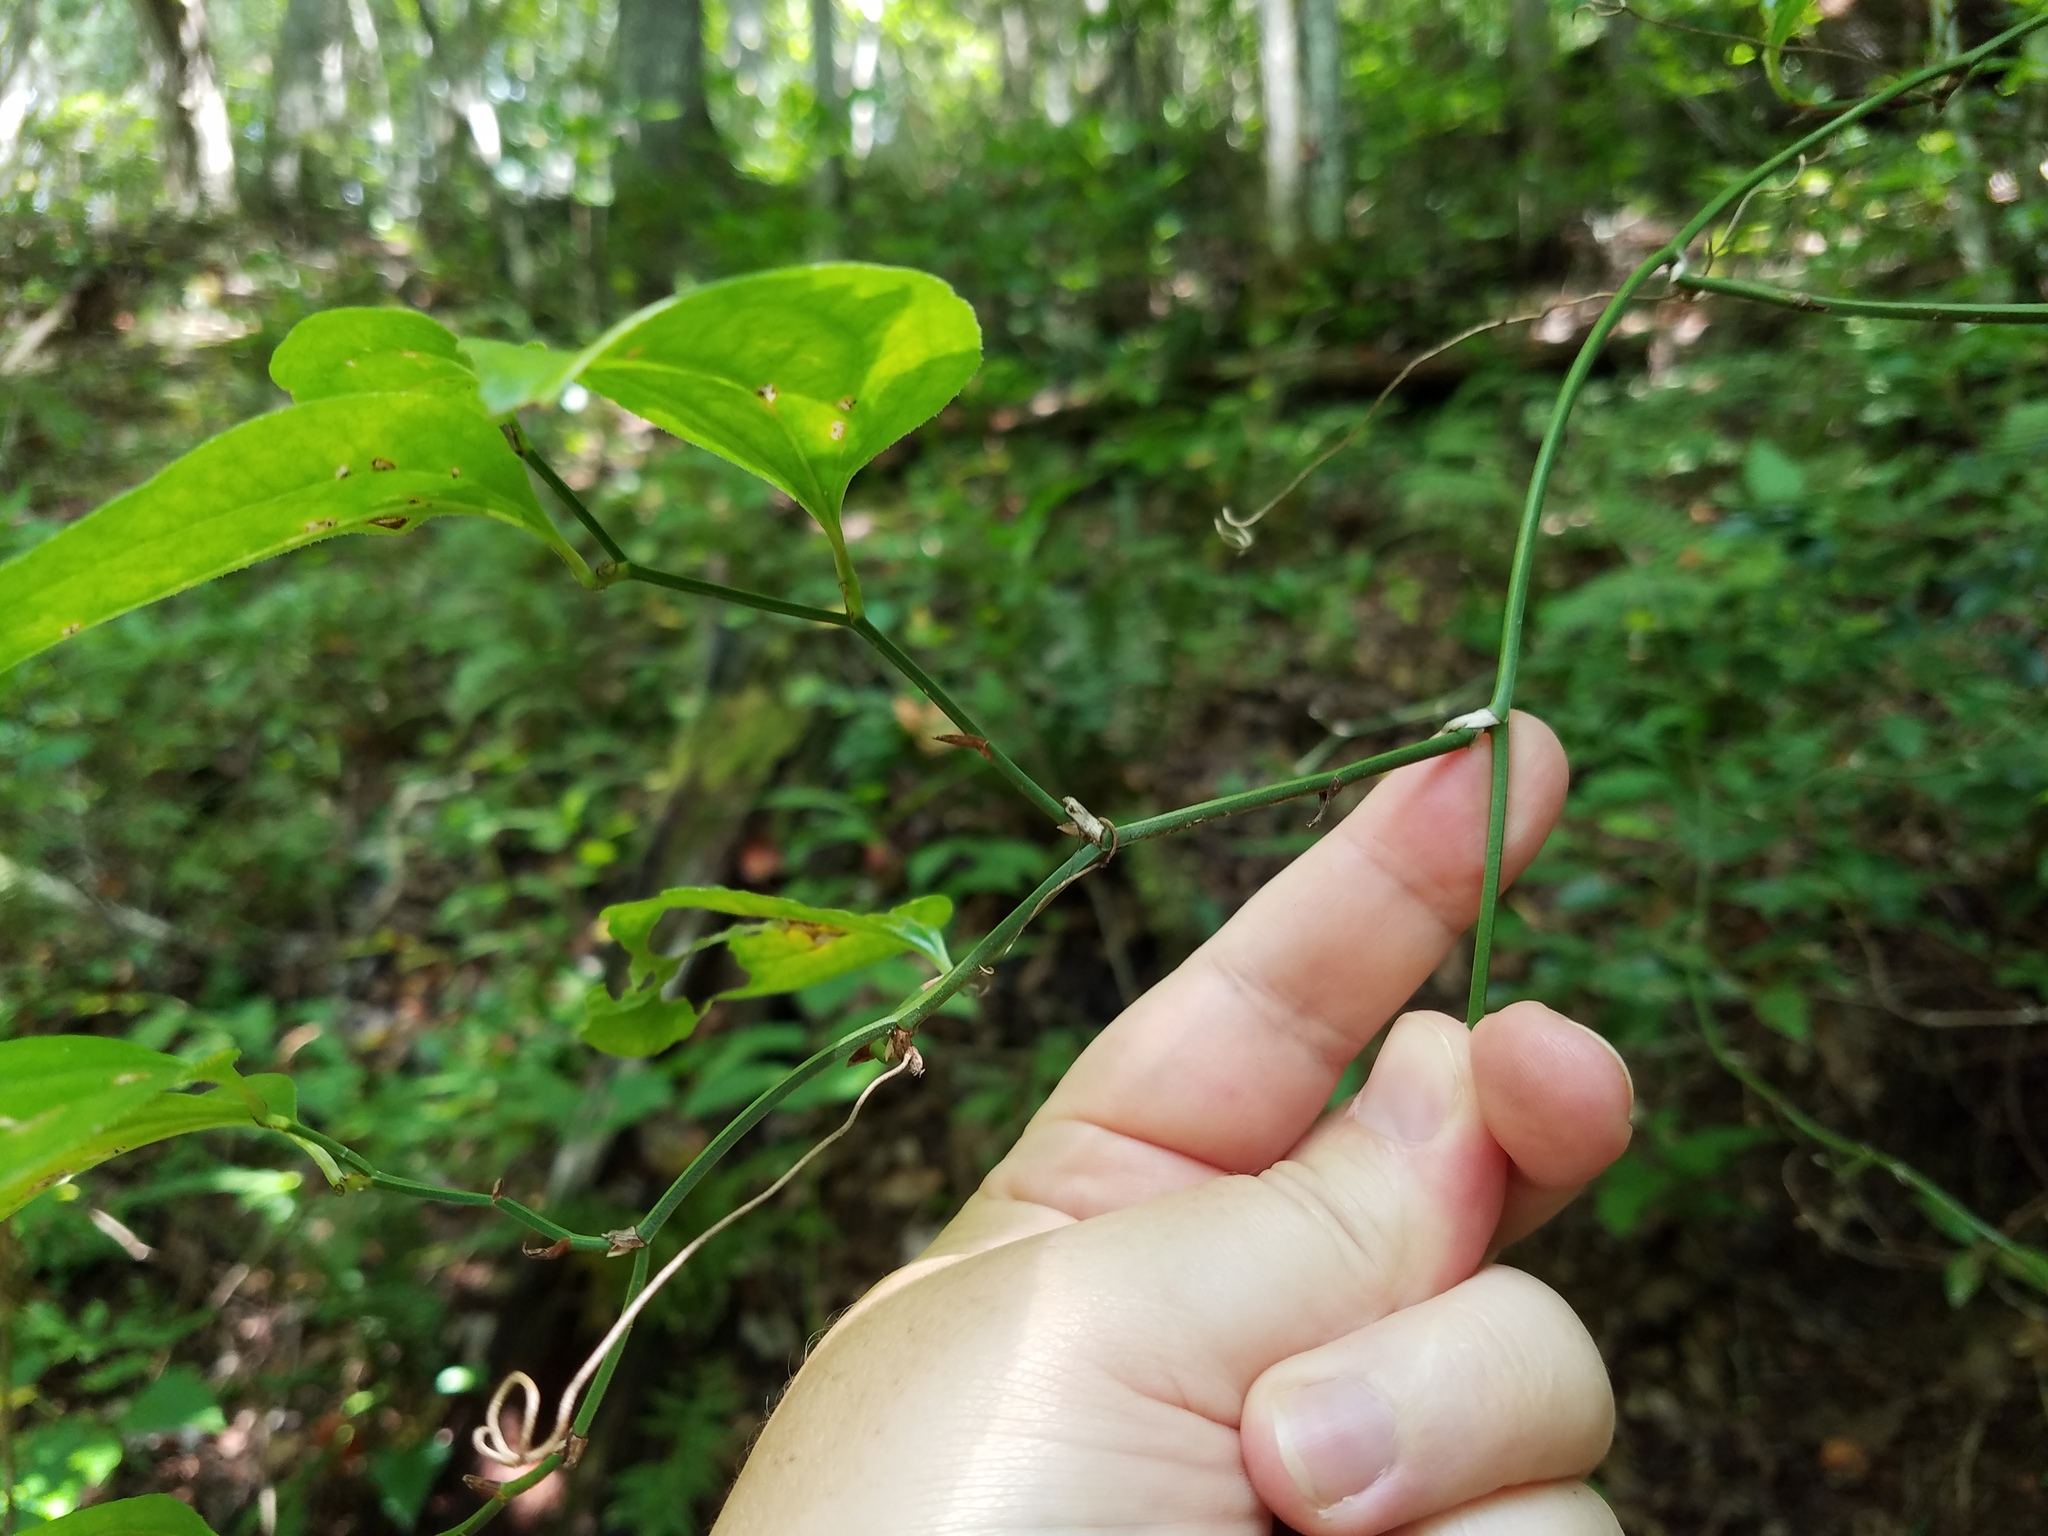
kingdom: Plantae
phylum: Tracheophyta
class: Liliopsida
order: Liliales
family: Smilacaceae
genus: Smilax
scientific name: Smilax rotundifolia
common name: Bullbriar
